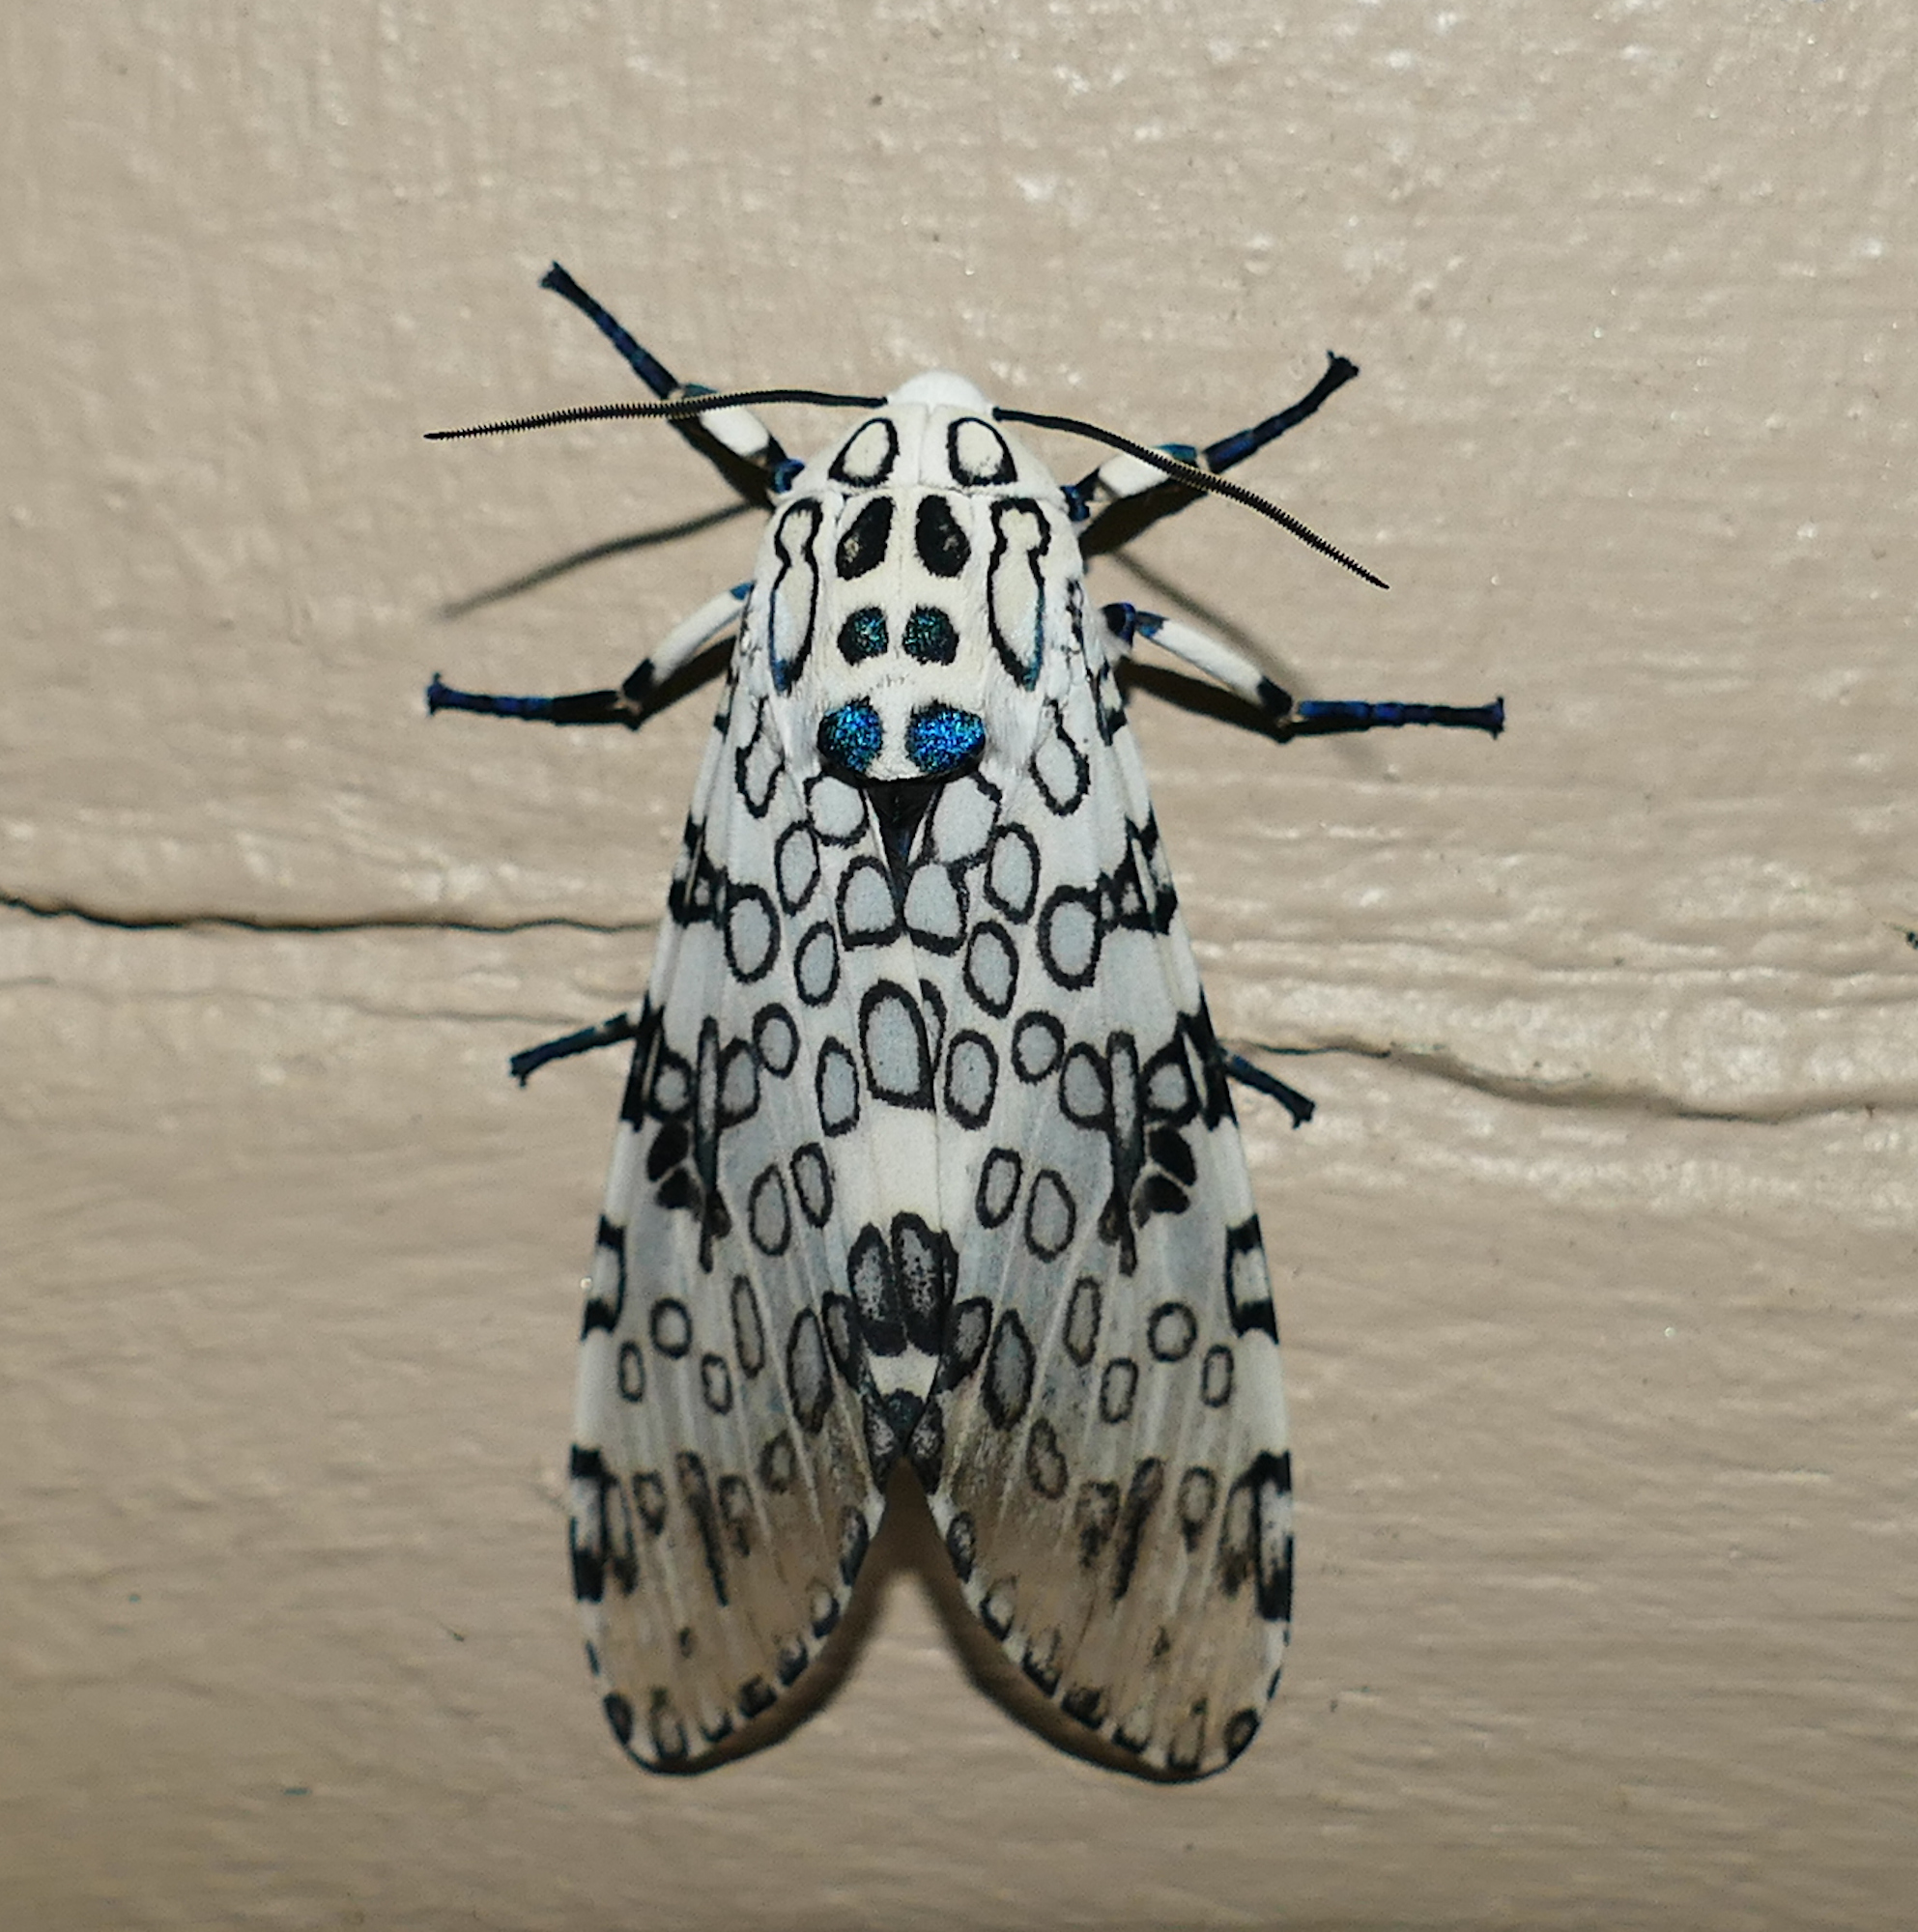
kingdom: Animalia
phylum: Arthropoda
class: Insecta
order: Lepidoptera
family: Erebidae
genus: Hypercompe
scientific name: Hypercompe scribonia
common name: Giant leopard moth
